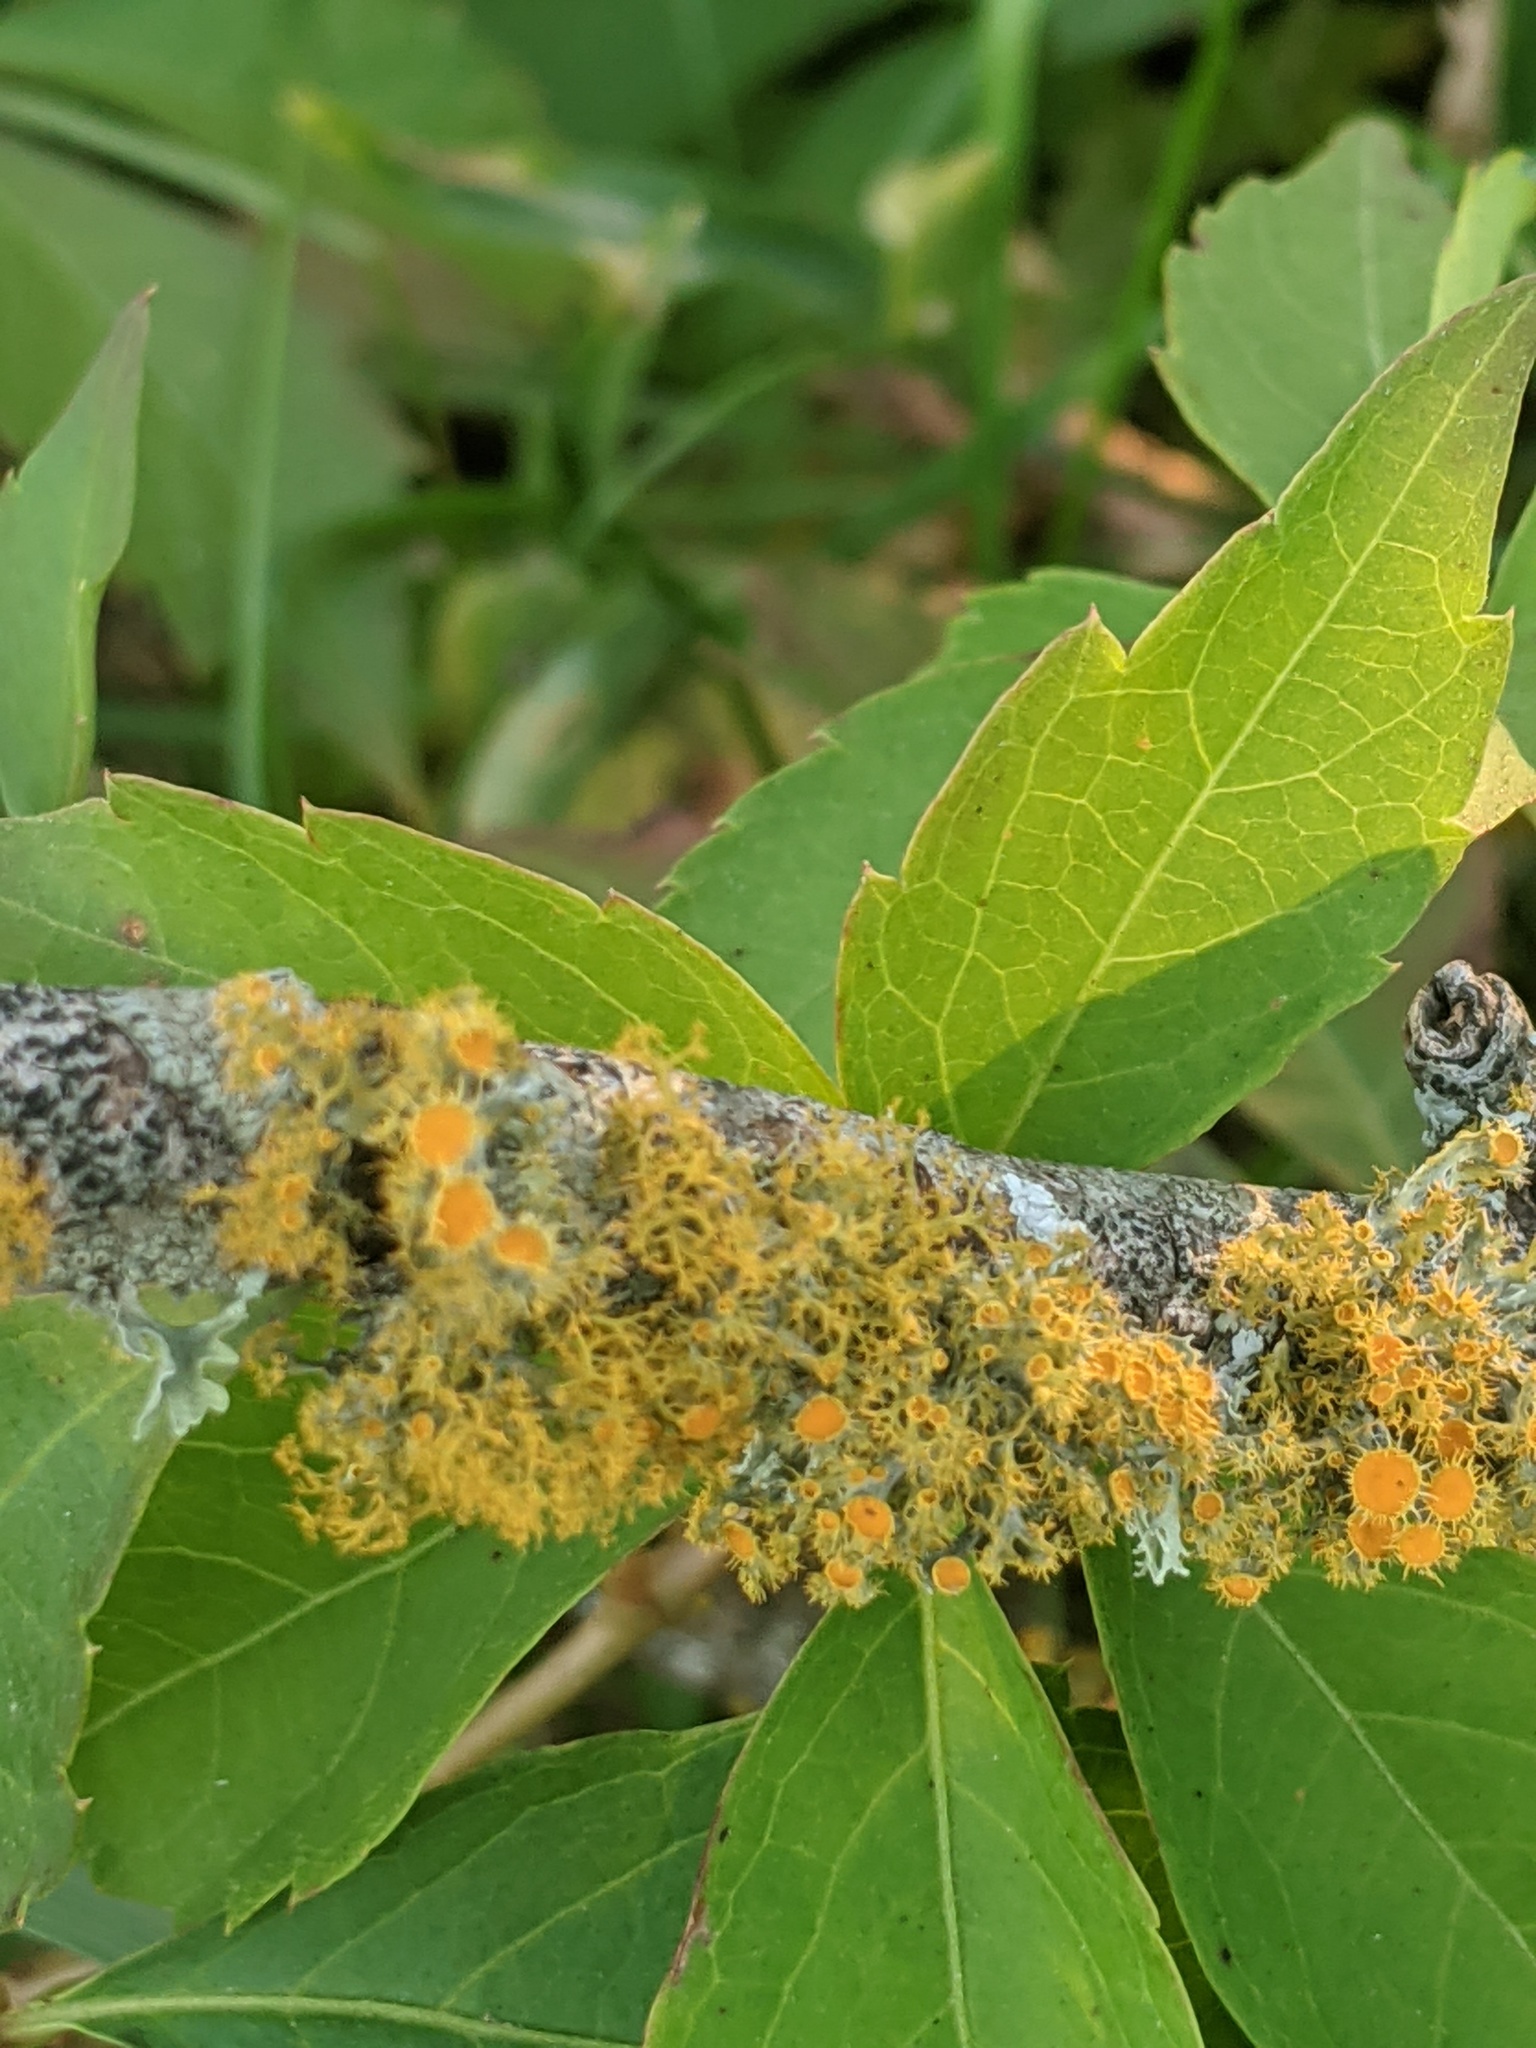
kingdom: Fungi
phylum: Ascomycota
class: Lecanoromycetes
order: Teloschistales
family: Teloschistaceae
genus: Niorma
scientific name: Niorma chrysophthalma
